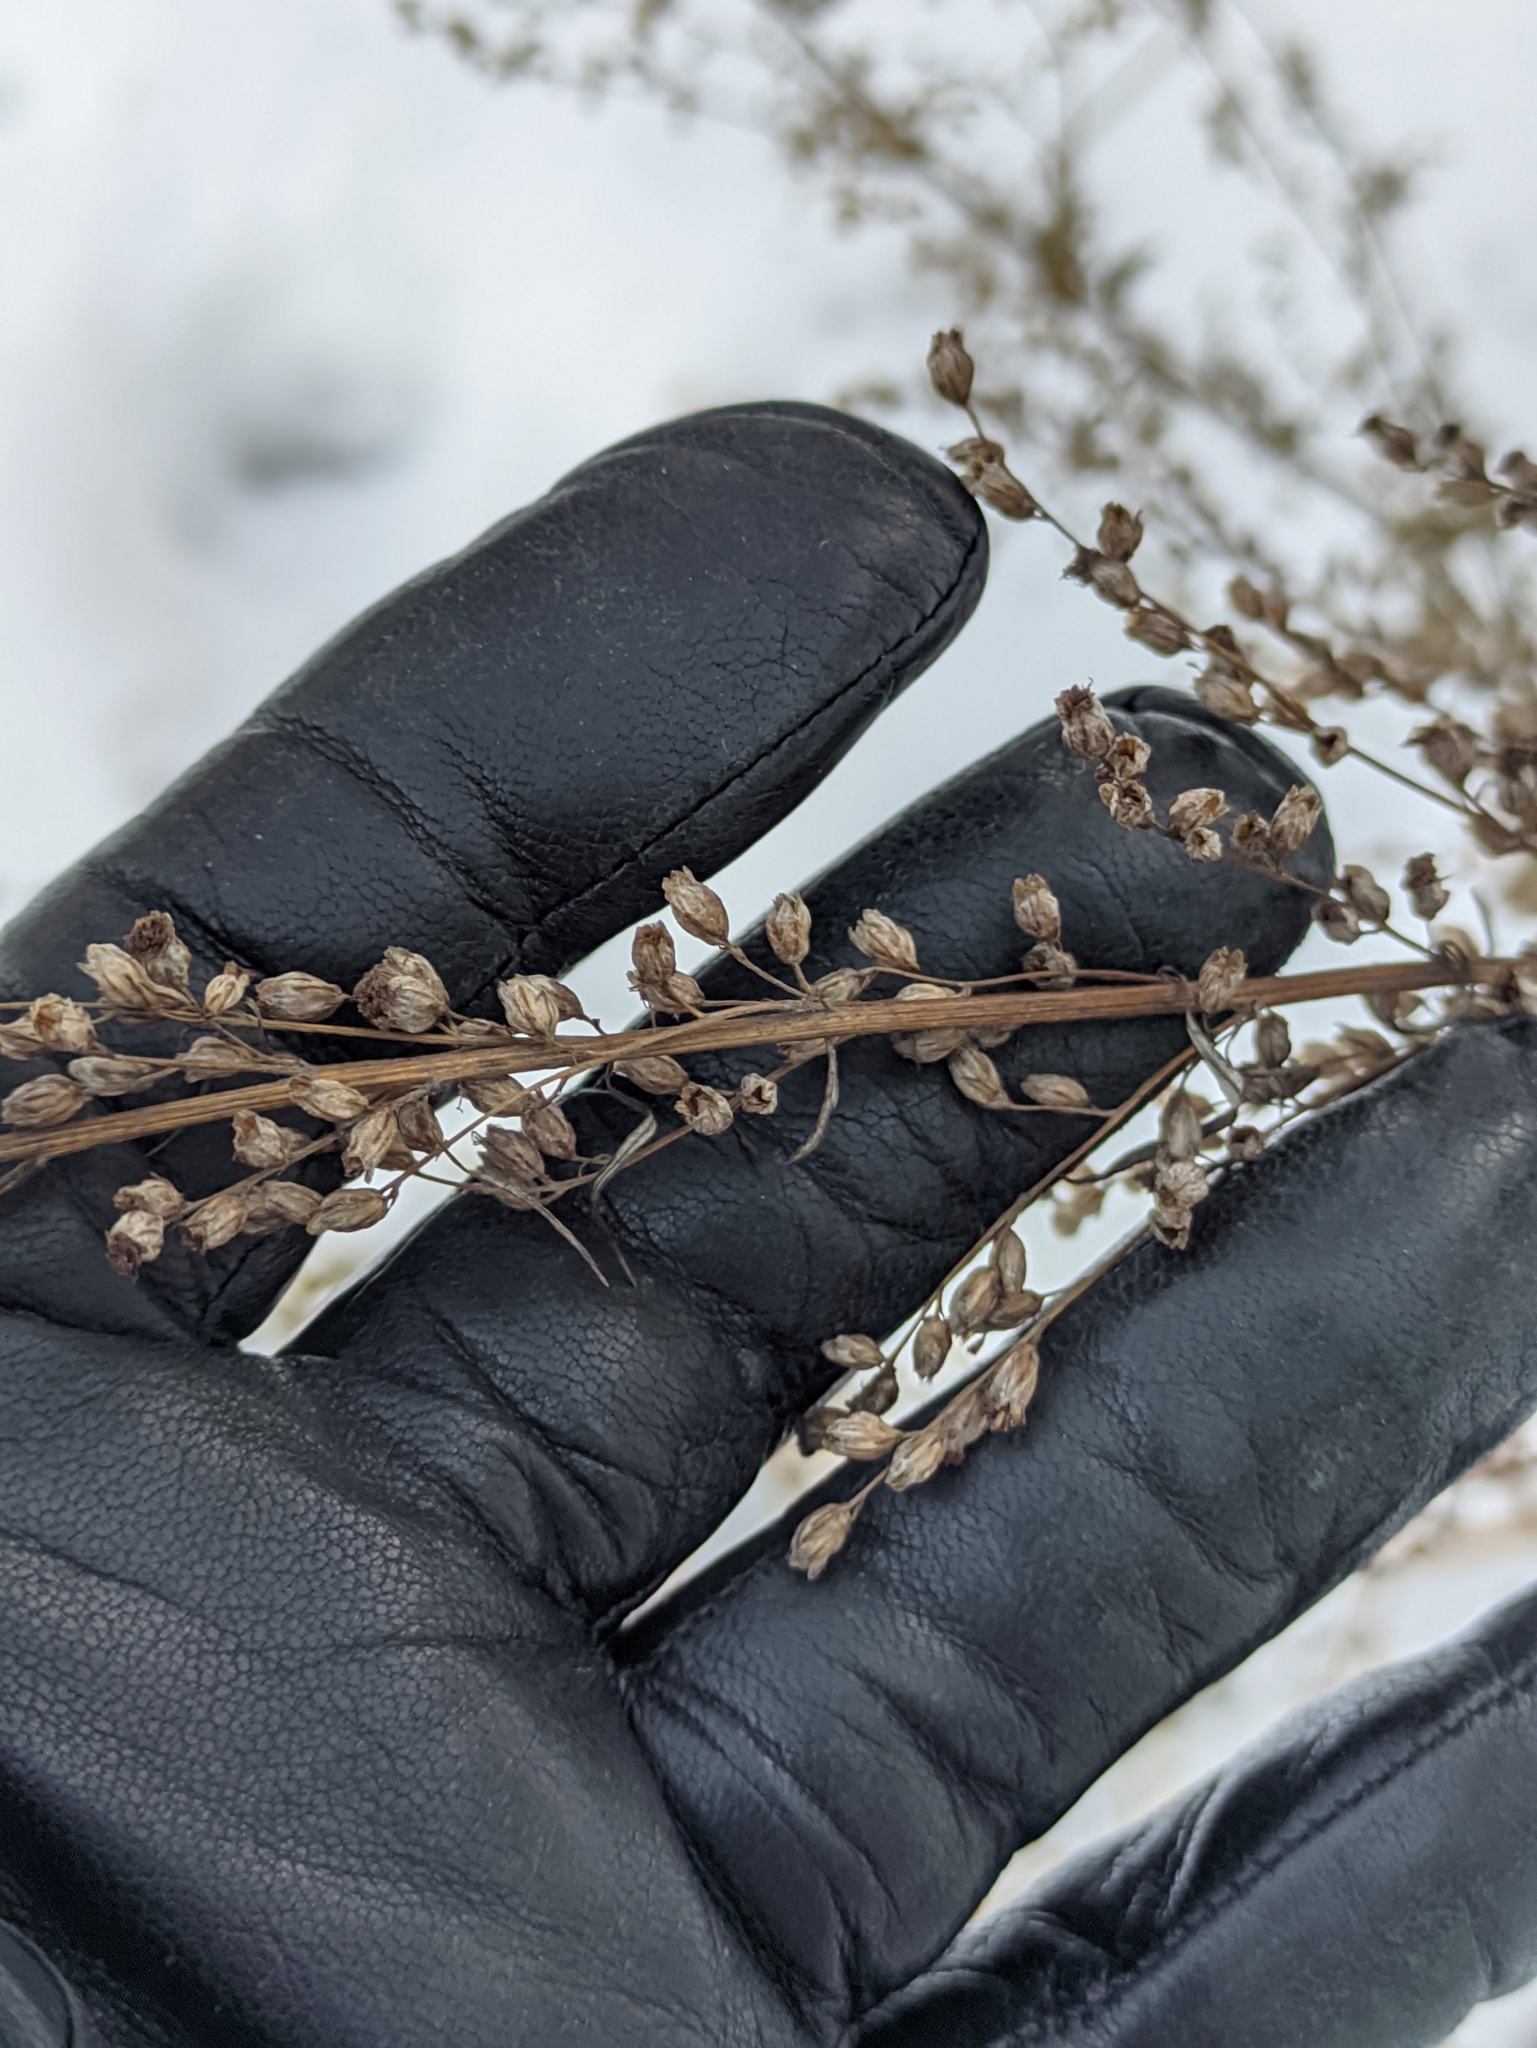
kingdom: Plantae
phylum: Tracheophyta
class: Magnoliopsida
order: Asterales
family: Asteraceae
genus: Artemisia
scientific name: Artemisia vulgaris
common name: Mugwort
